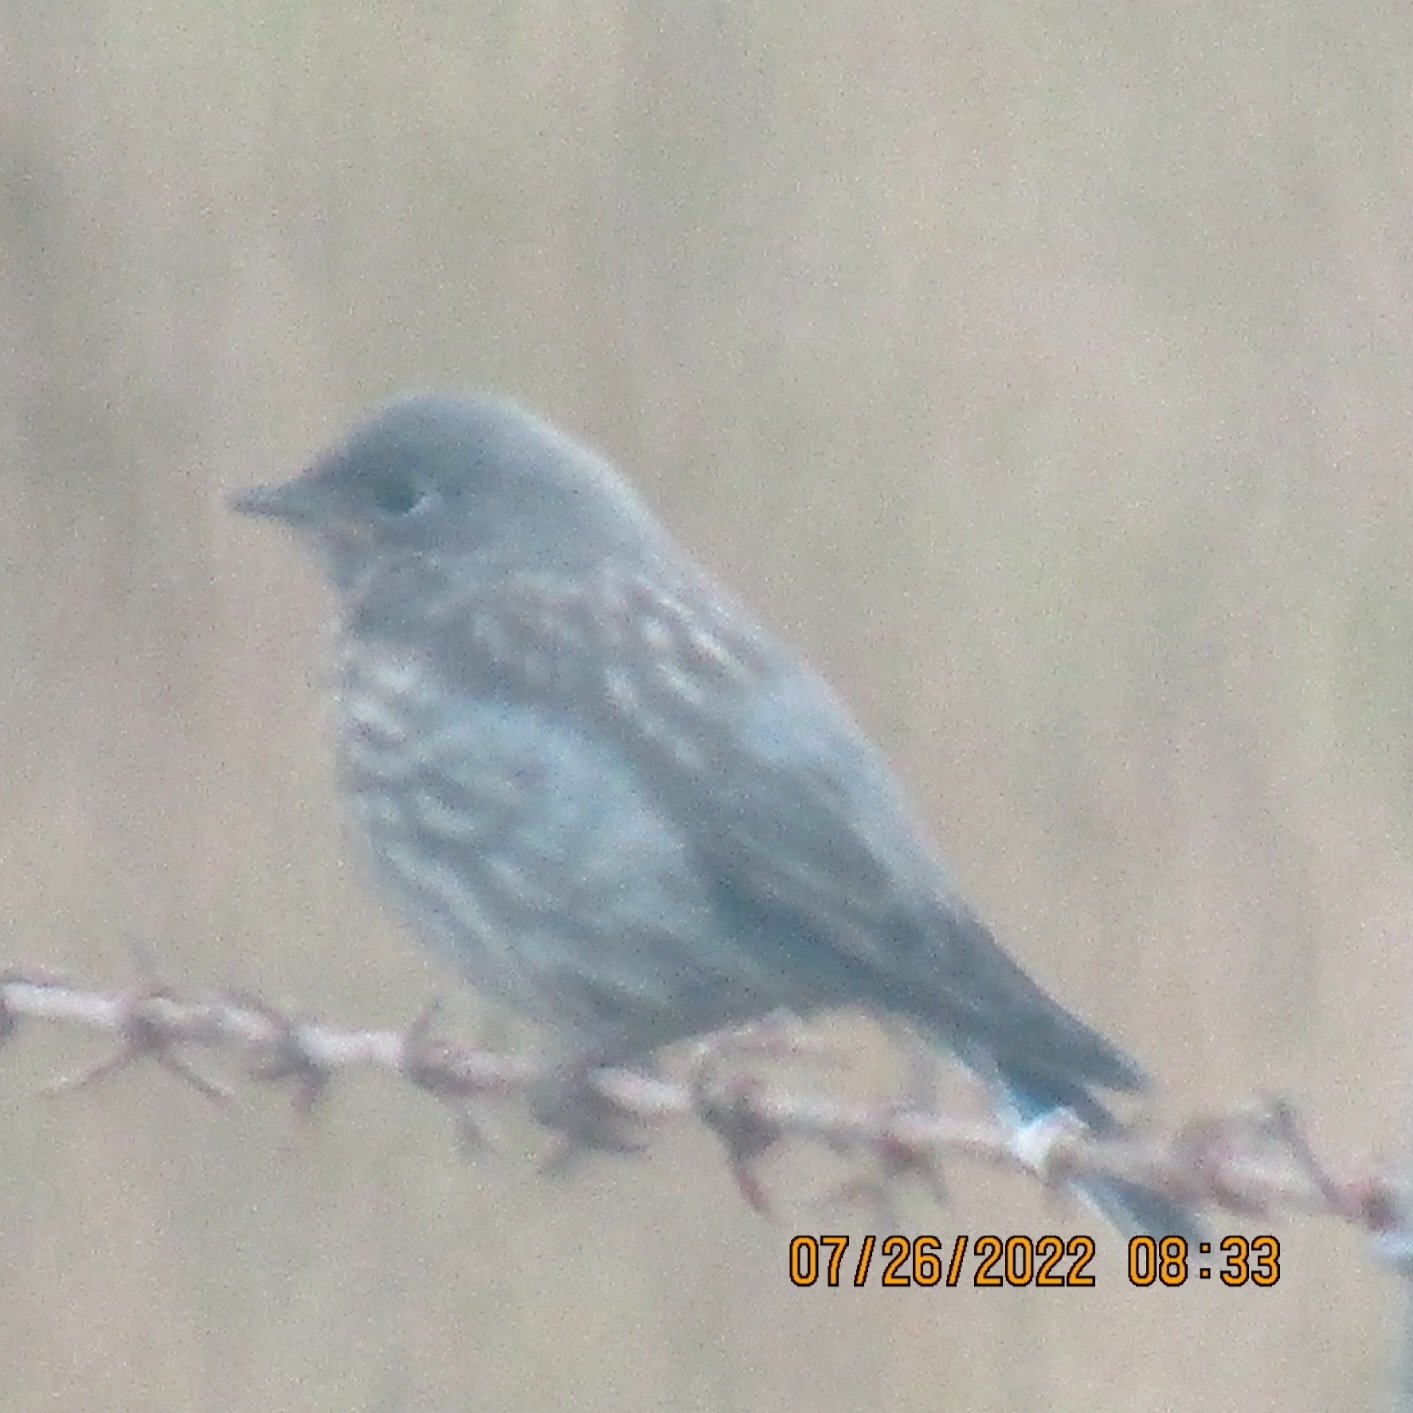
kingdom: Animalia
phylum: Chordata
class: Aves
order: Passeriformes
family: Turdidae
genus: Sialia
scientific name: Sialia mexicana
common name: Western bluebird
